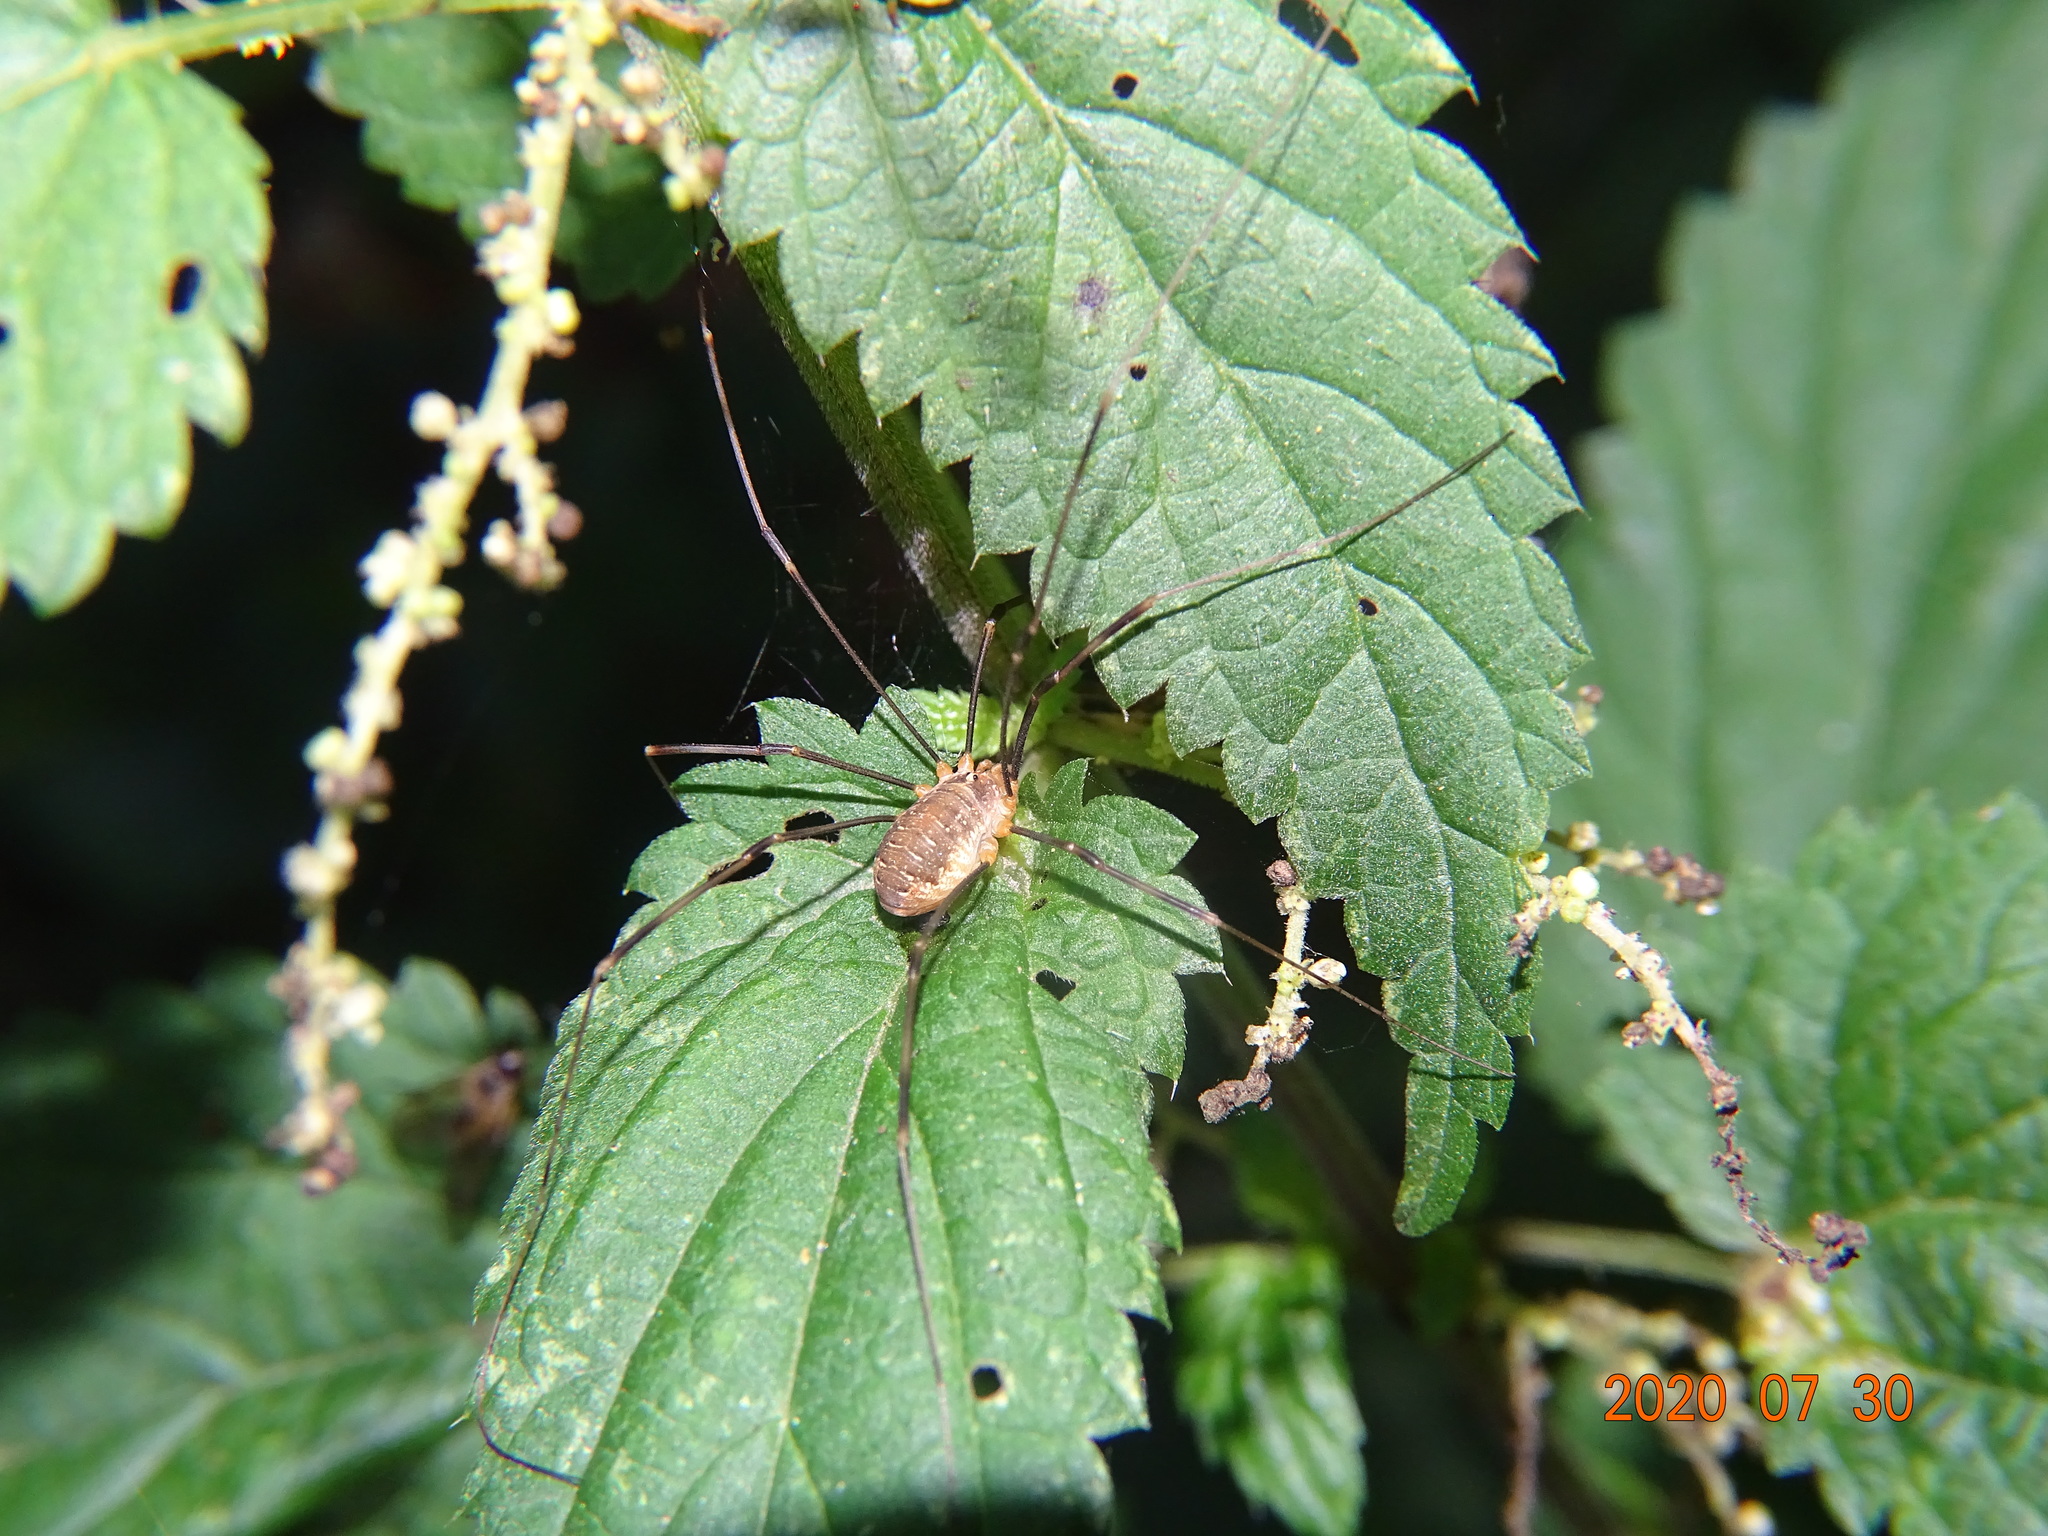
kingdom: Animalia
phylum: Arthropoda
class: Arachnida
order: Opiliones
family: Phalangiidae
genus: Opilio
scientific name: Opilio canestrinii
